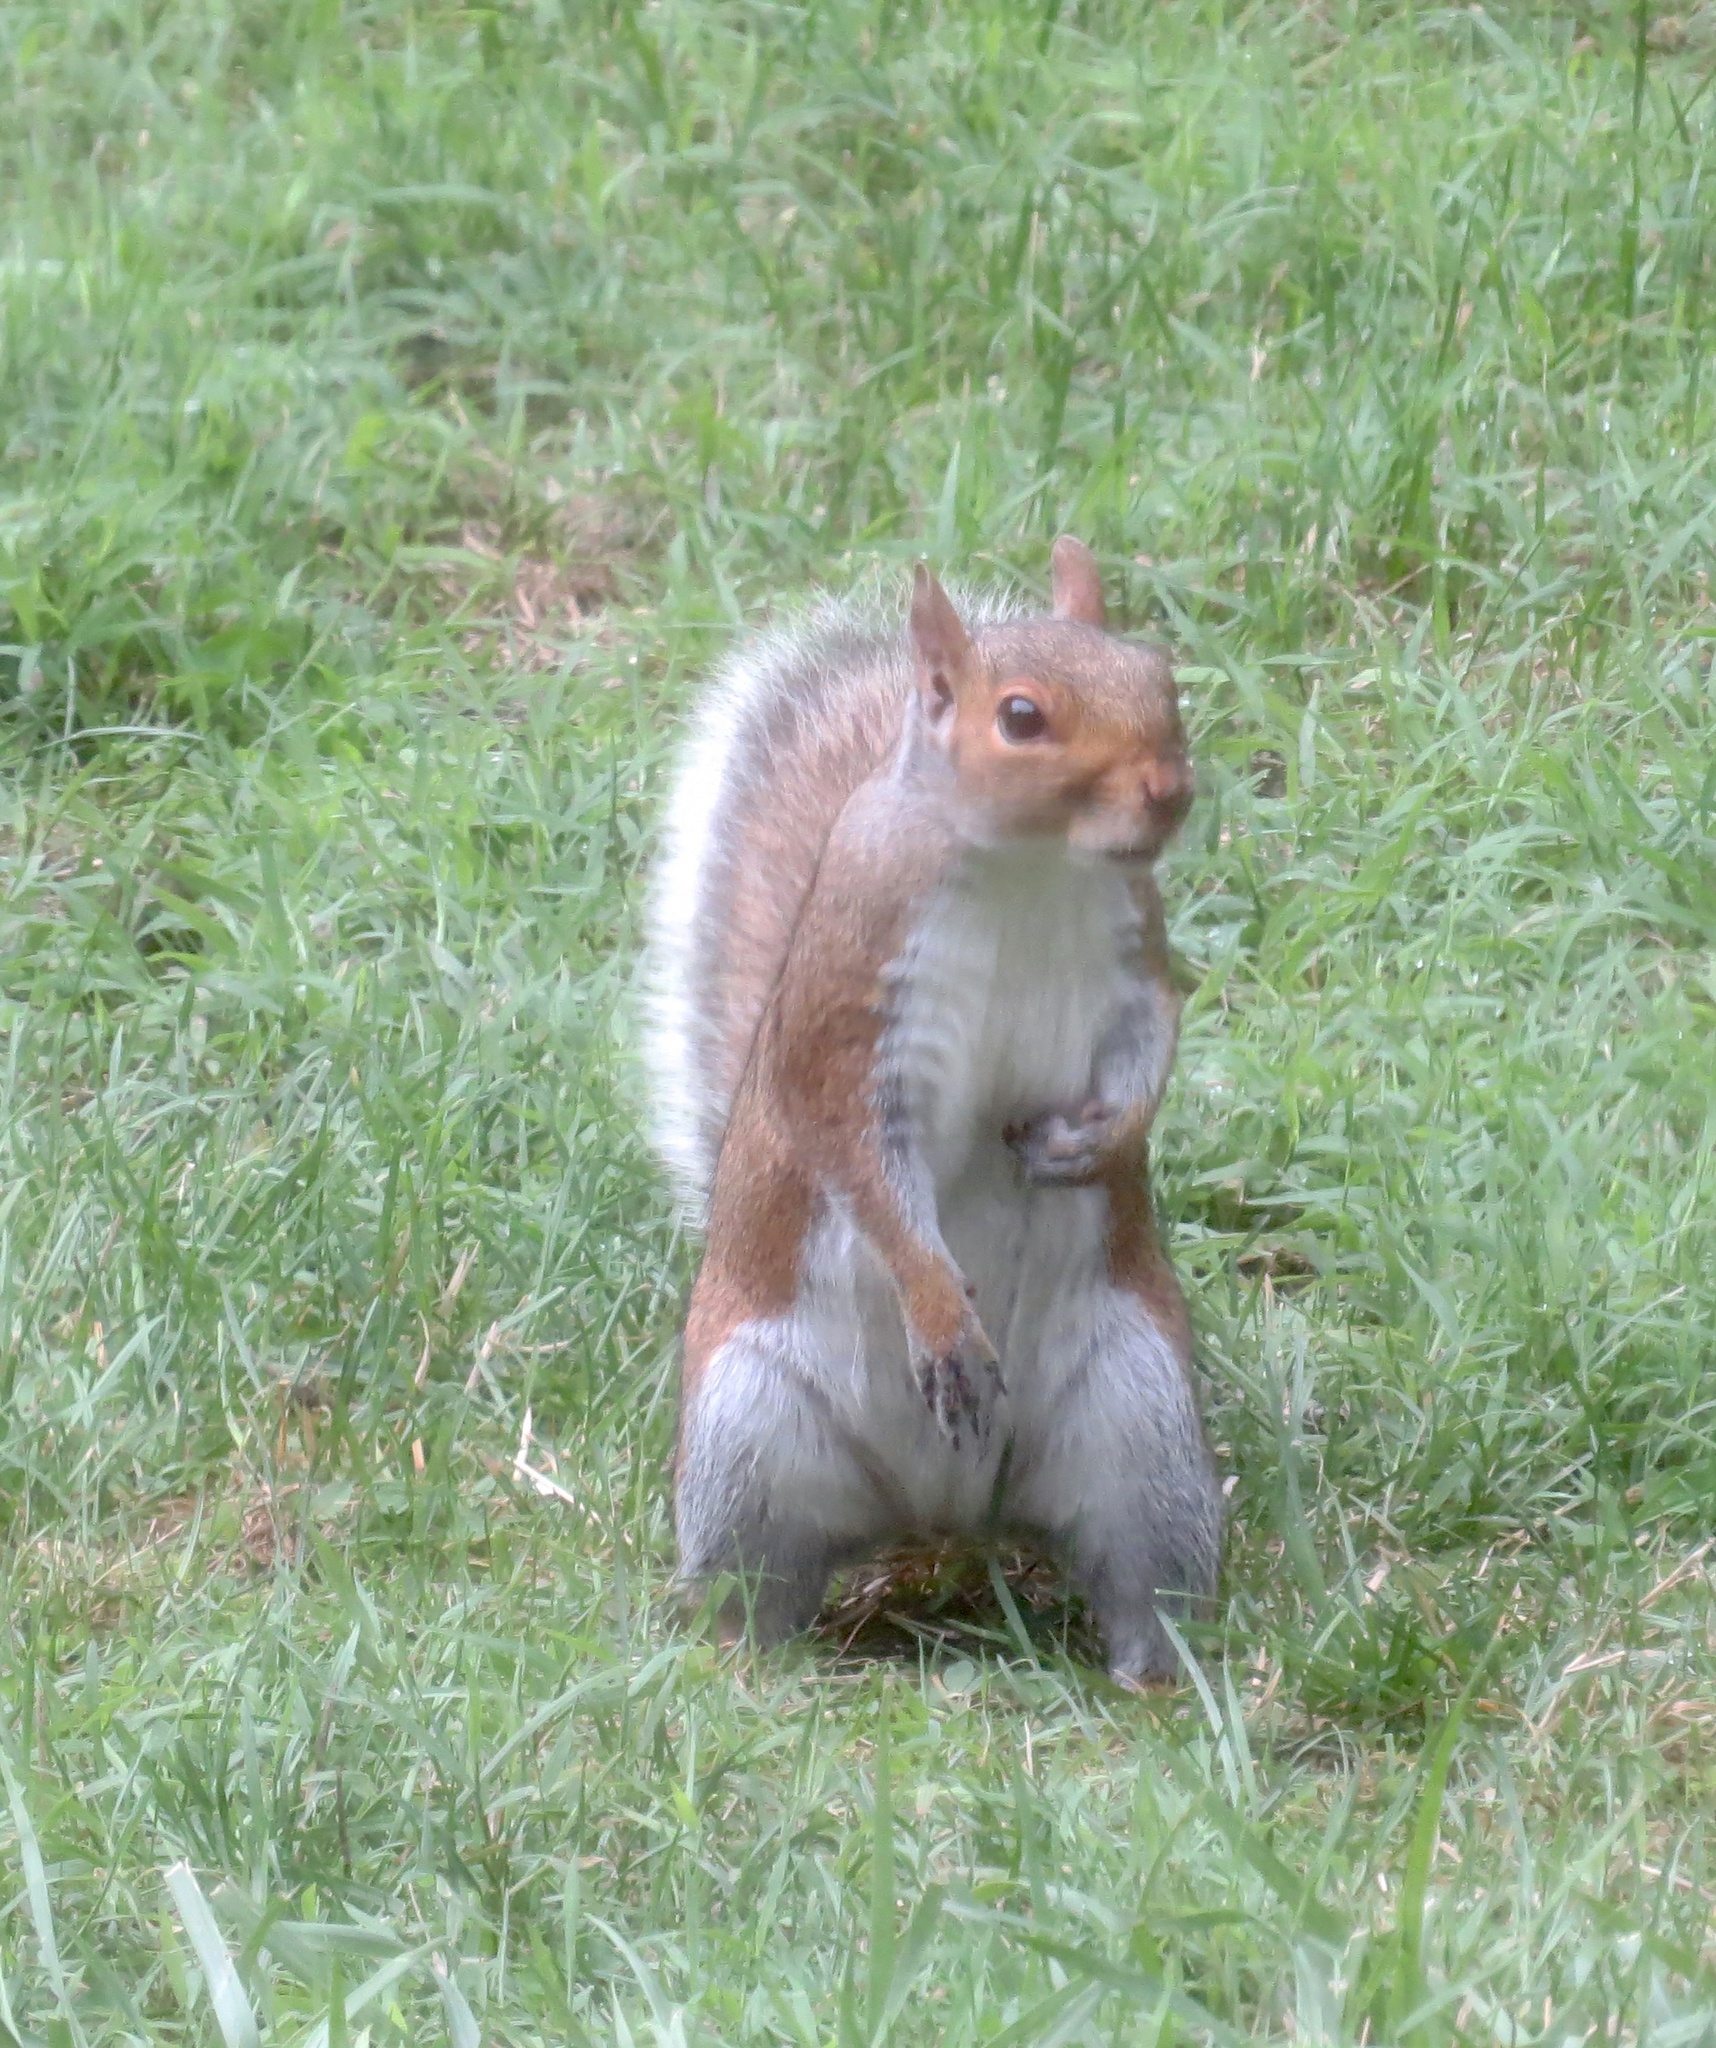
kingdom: Animalia
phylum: Chordata
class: Mammalia
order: Rodentia
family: Sciuridae
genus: Sciurus
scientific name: Sciurus carolinensis
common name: Eastern gray squirrel
